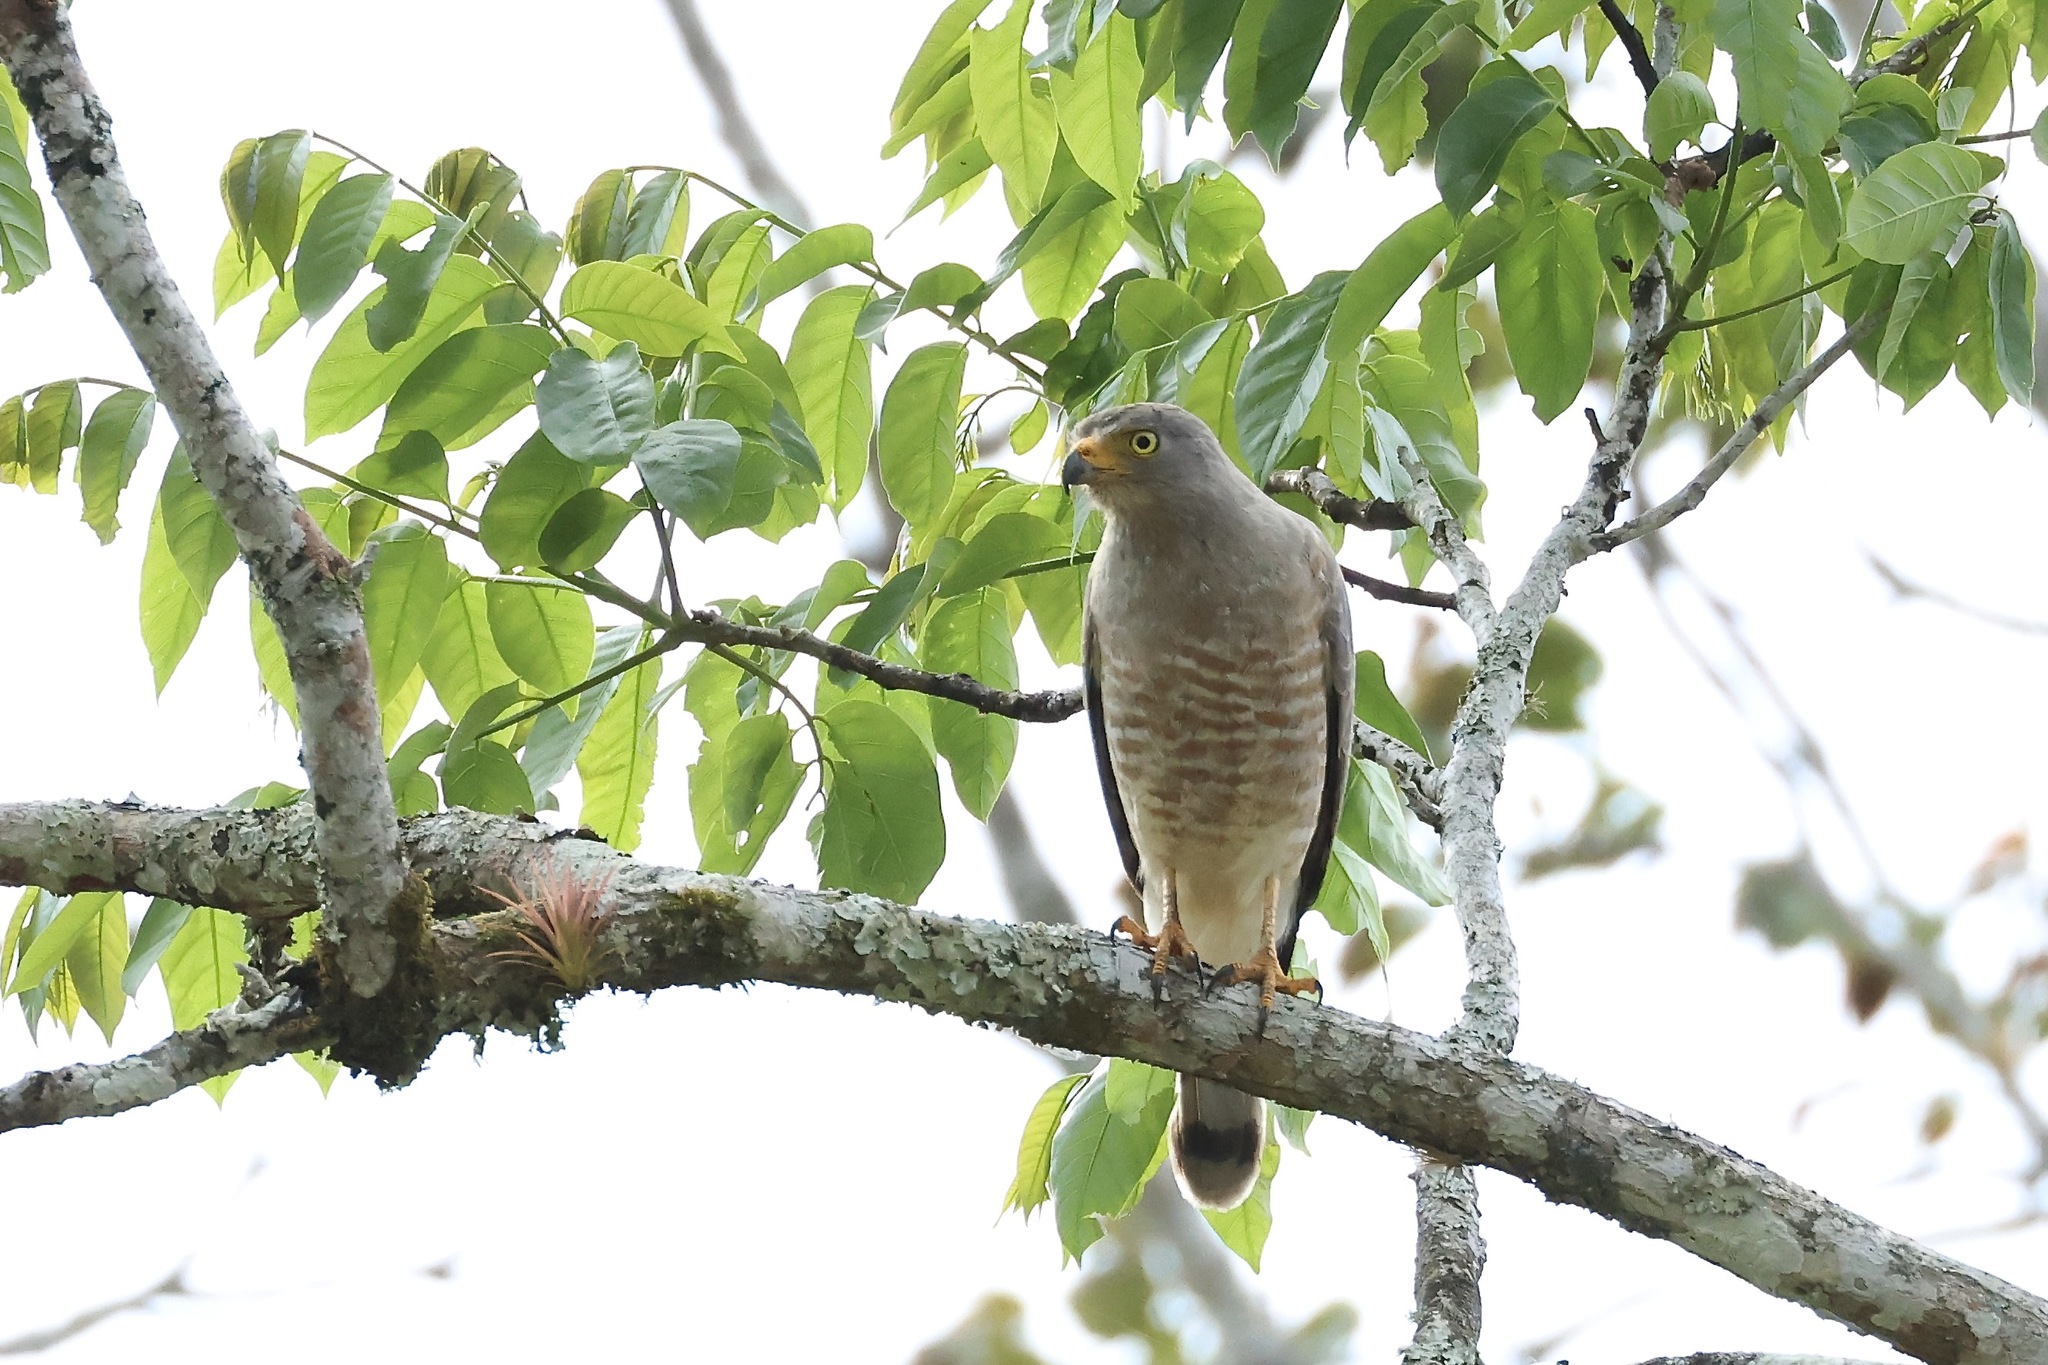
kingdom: Animalia
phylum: Chordata
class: Aves
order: Accipitriformes
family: Accipitridae
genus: Rupornis
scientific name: Rupornis magnirostris
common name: Roadside hawk
